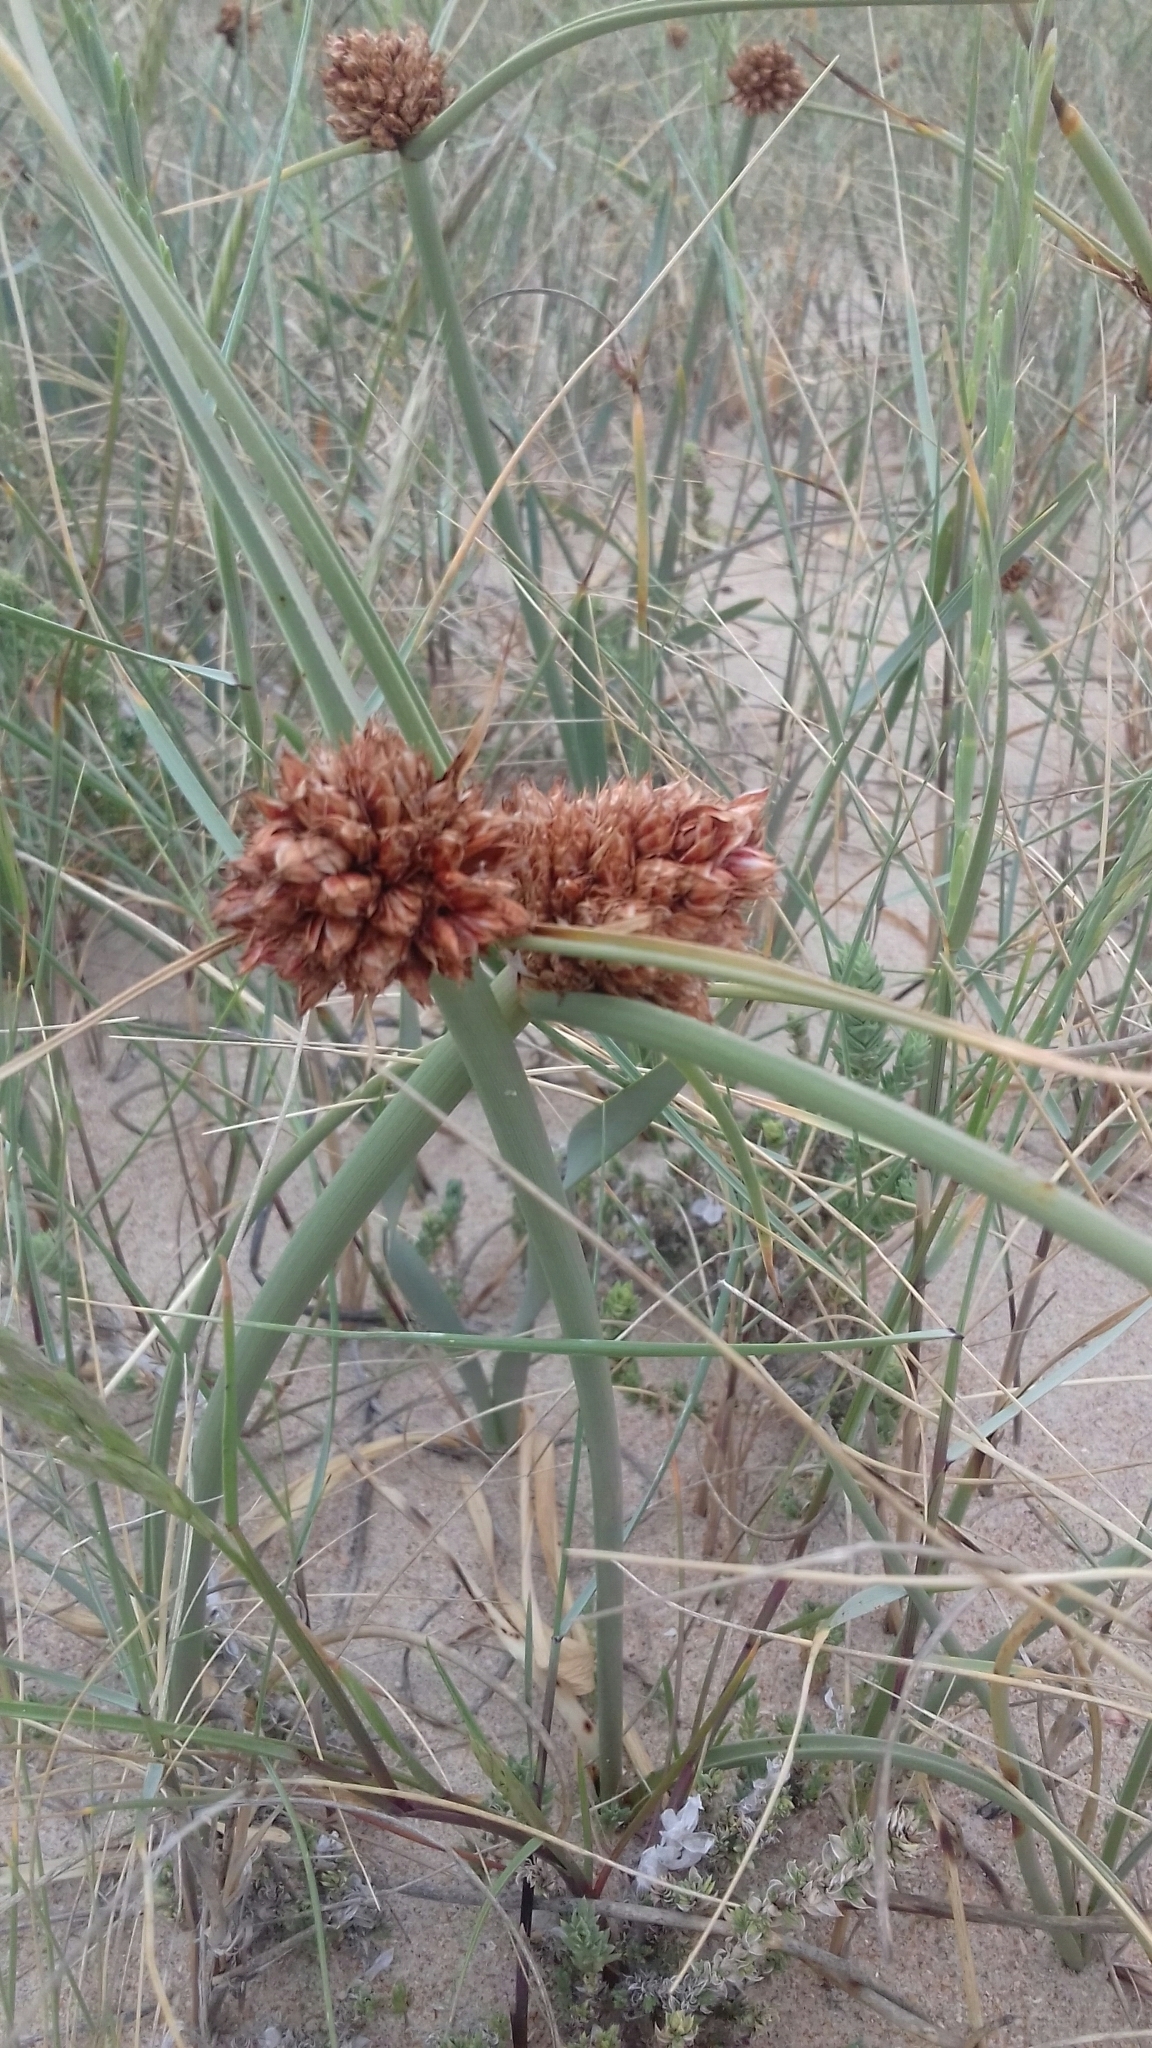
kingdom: Plantae
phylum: Tracheophyta
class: Liliopsida
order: Poales
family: Cyperaceae
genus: Cyperus
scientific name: Cyperus capitatus
